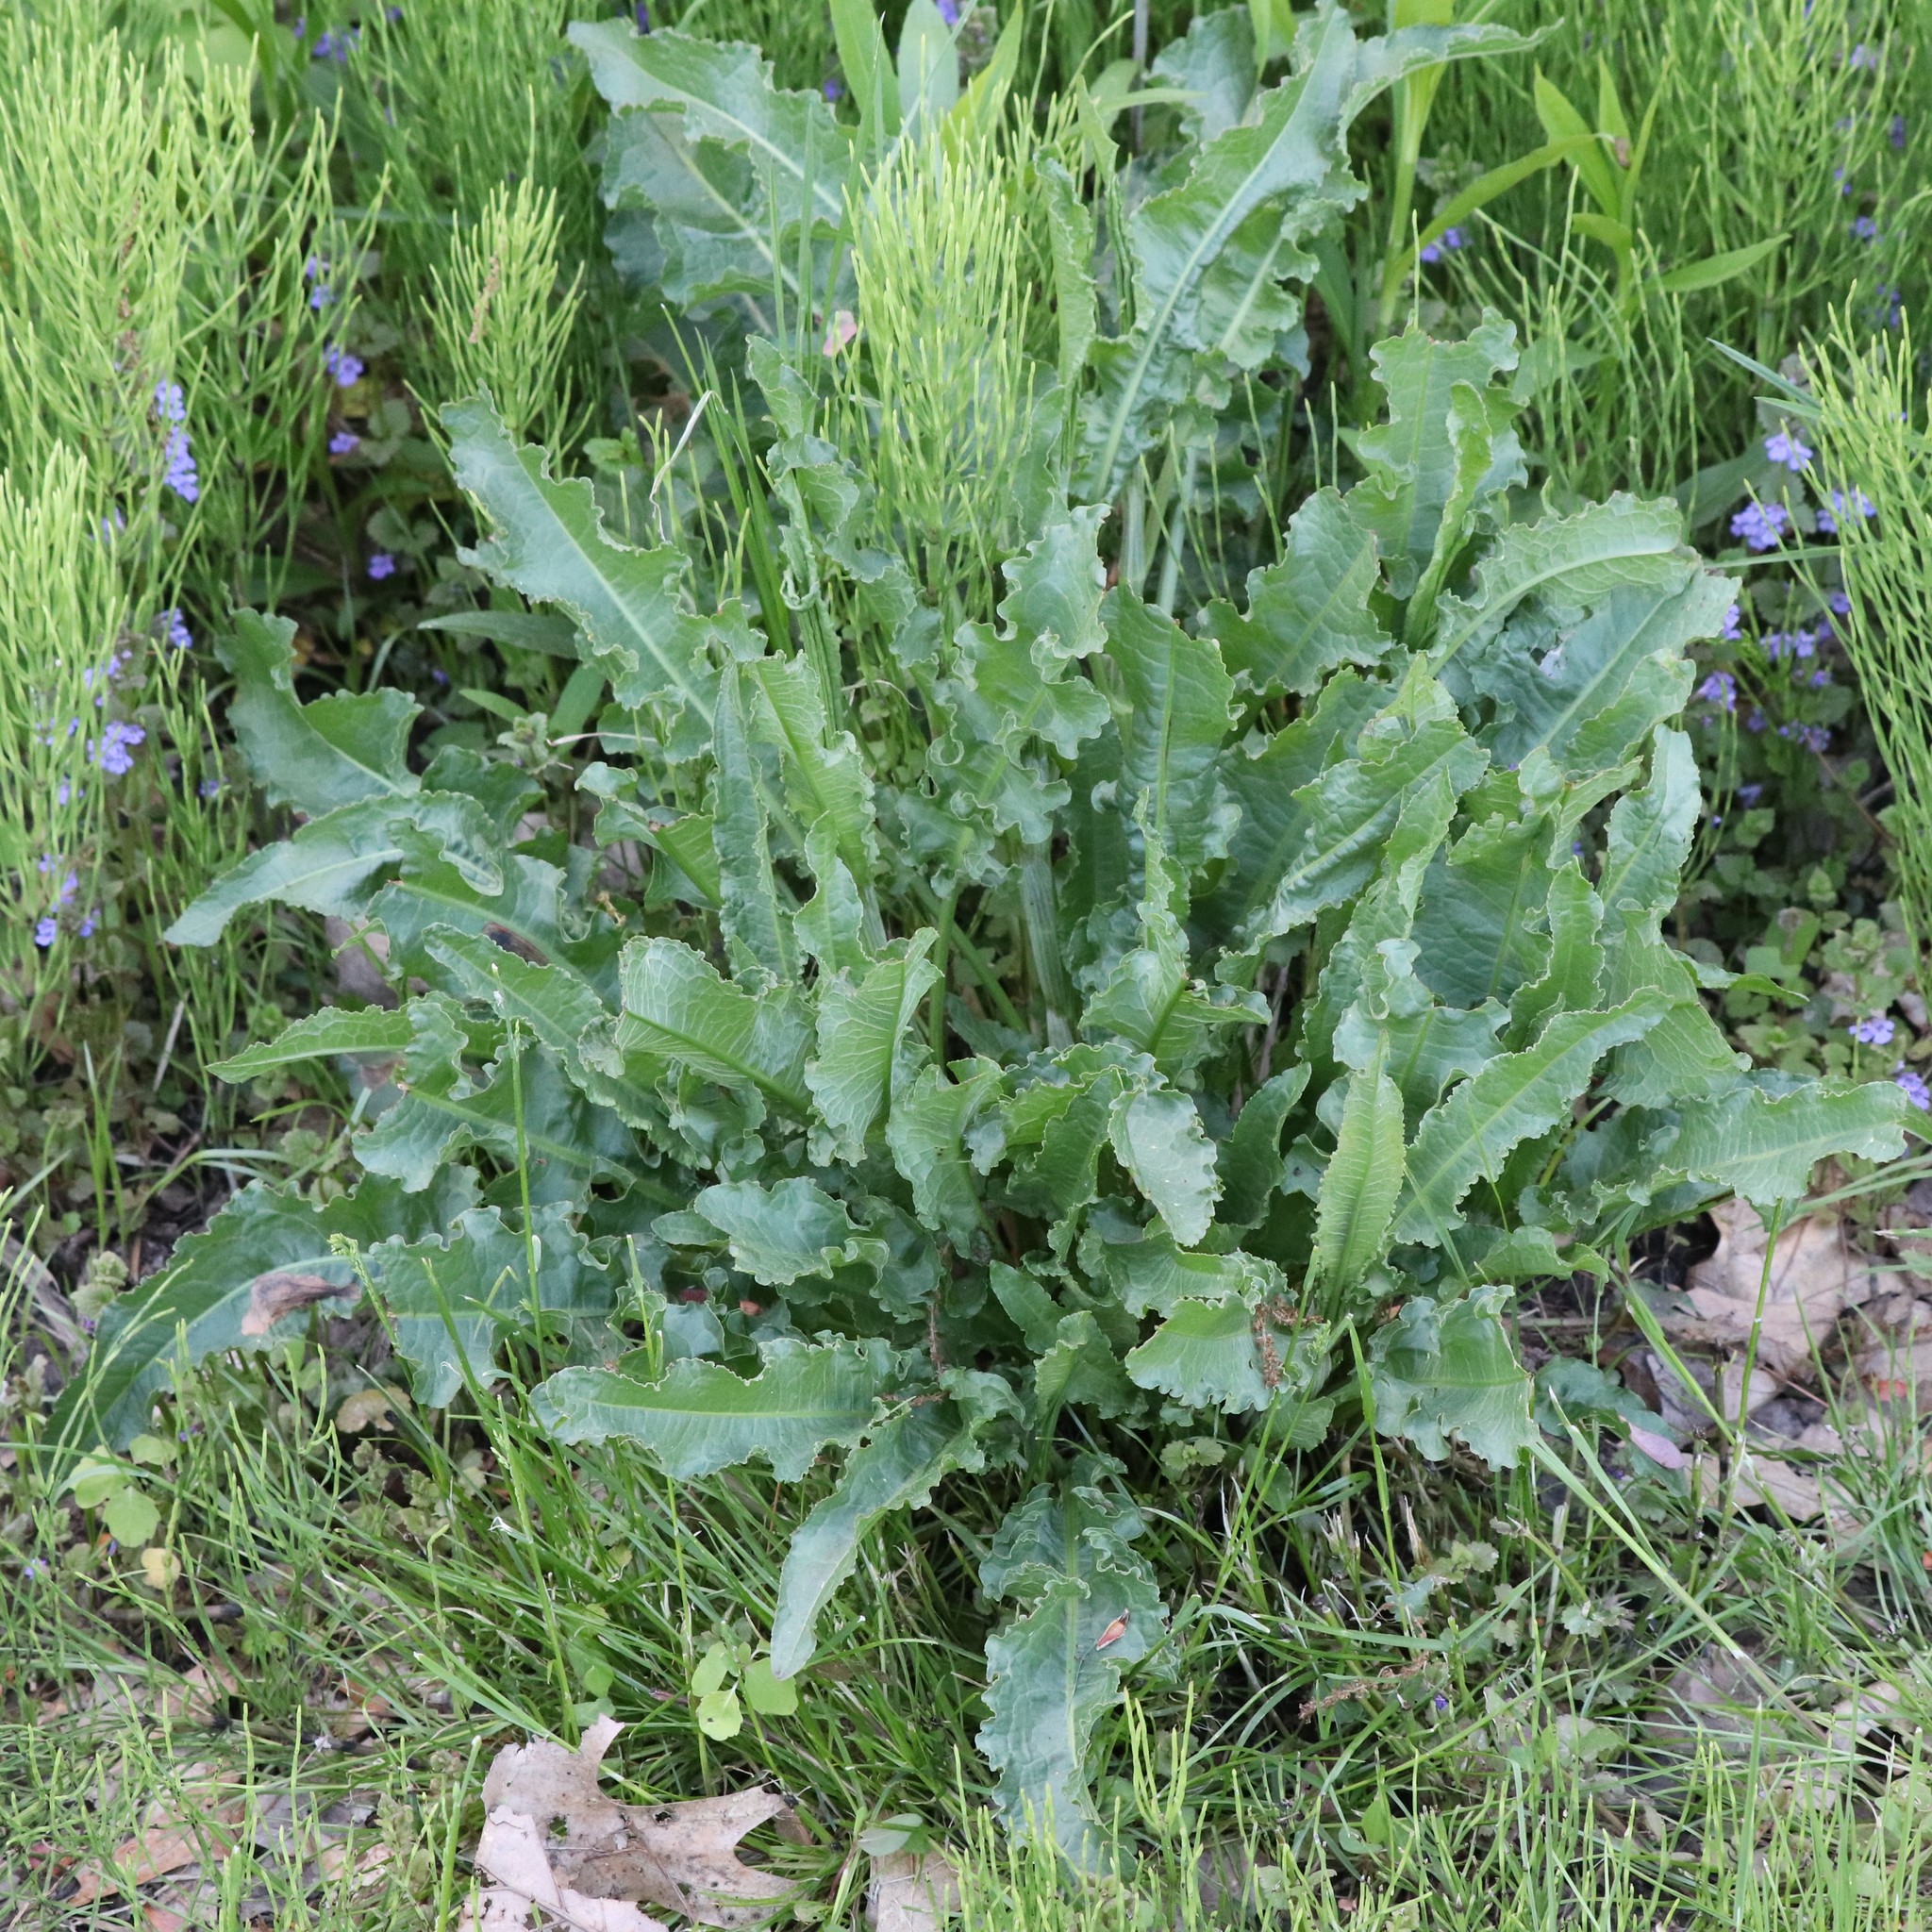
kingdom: Plantae
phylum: Tracheophyta
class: Magnoliopsida
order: Caryophyllales
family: Polygonaceae
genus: Rumex
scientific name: Rumex crispus
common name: Curled dock
